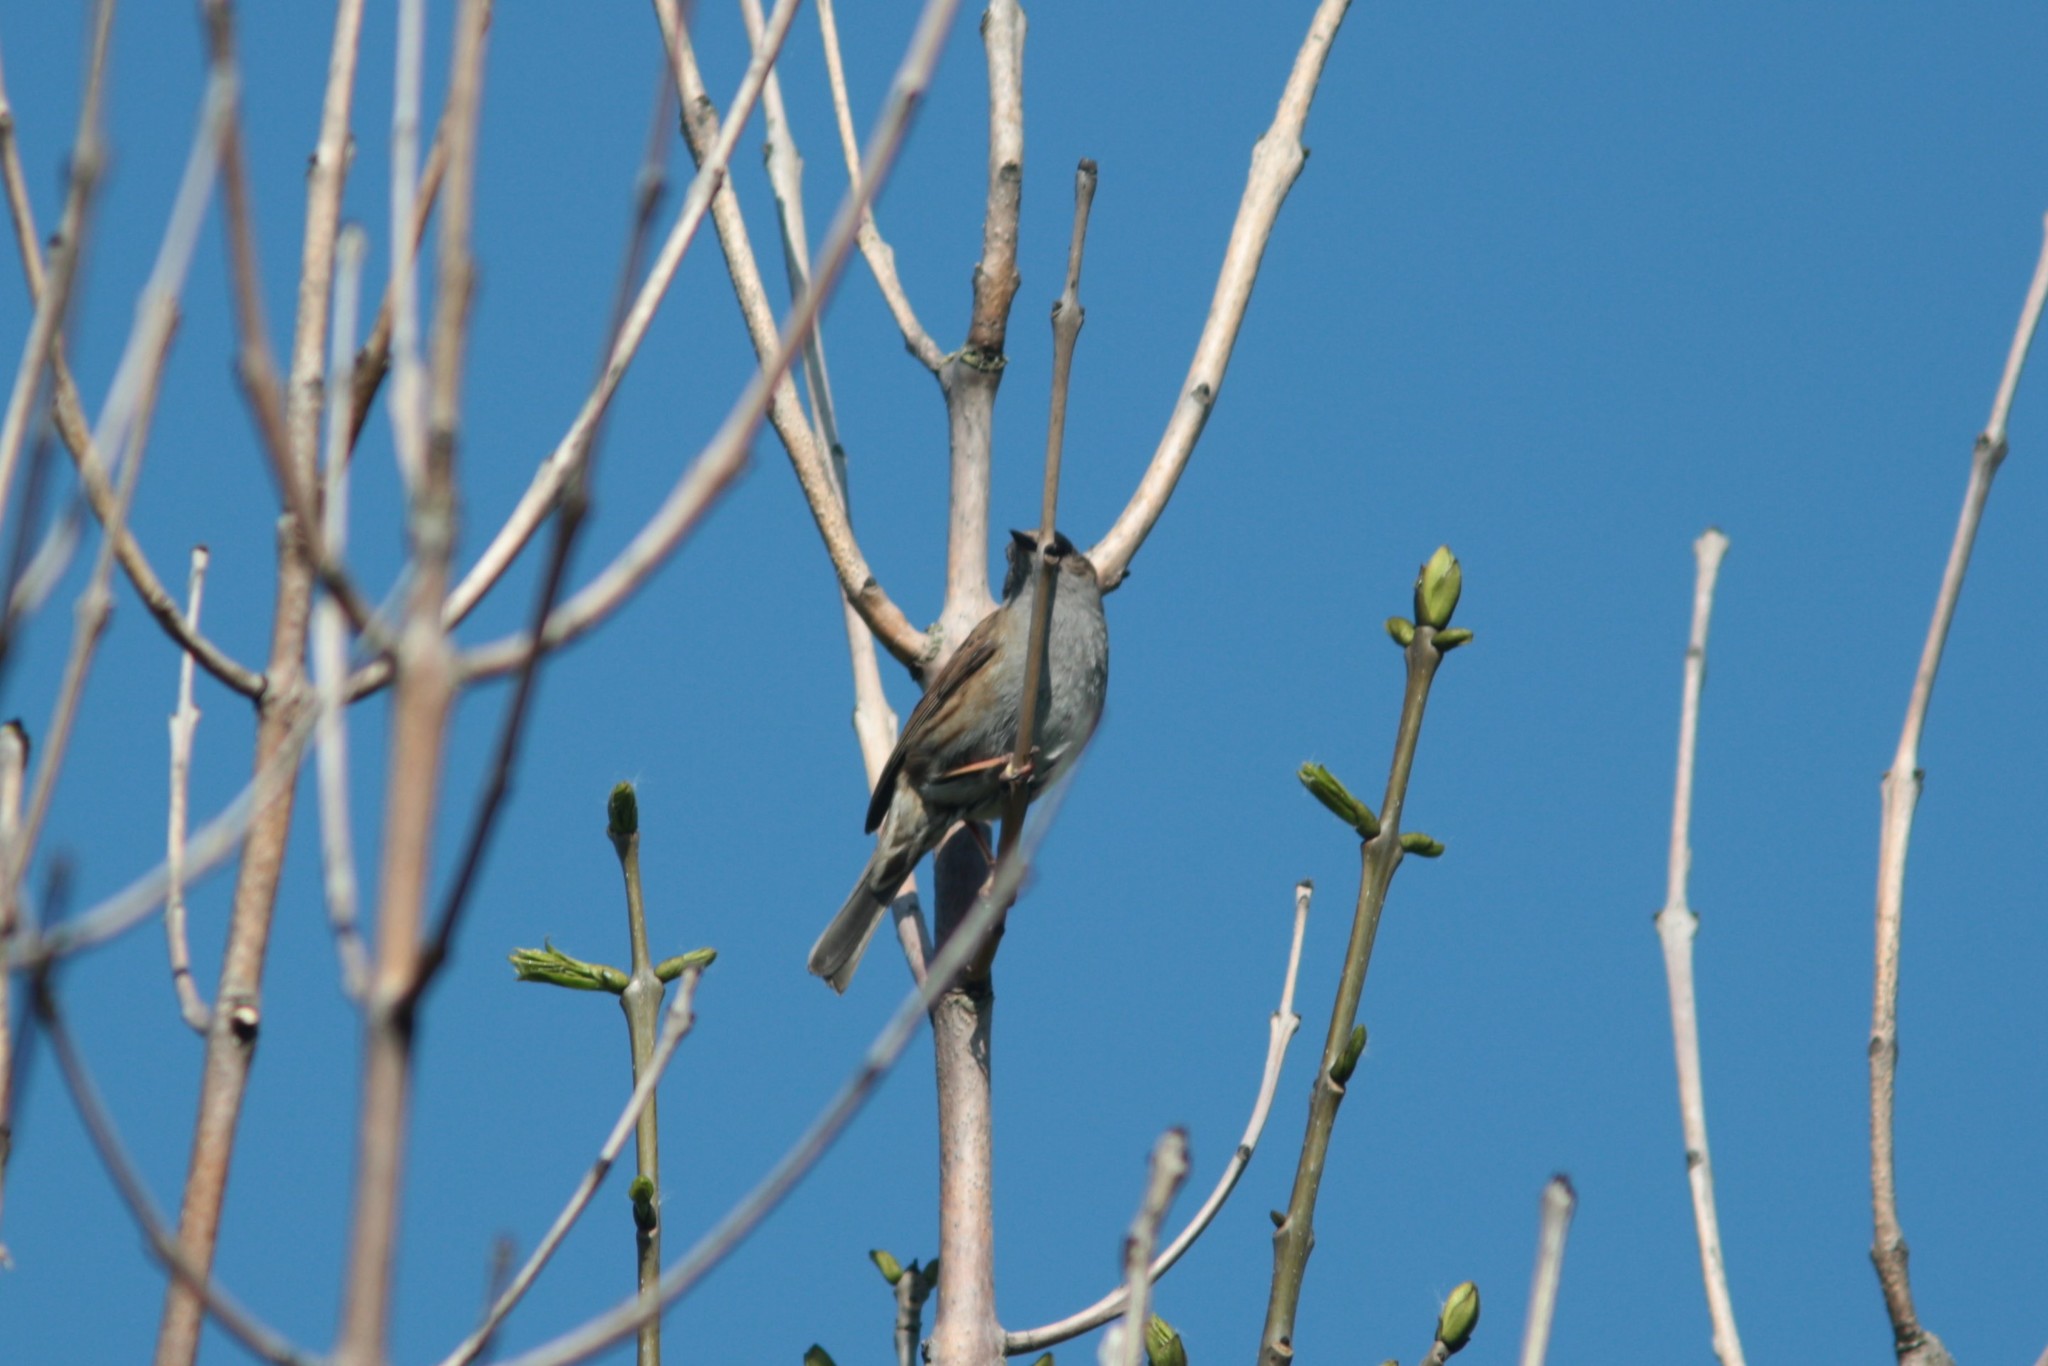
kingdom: Animalia
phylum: Chordata
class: Aves
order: Passeriformes
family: Prunellidae
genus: Prunella
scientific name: Prunella modularis
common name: Dunnock
